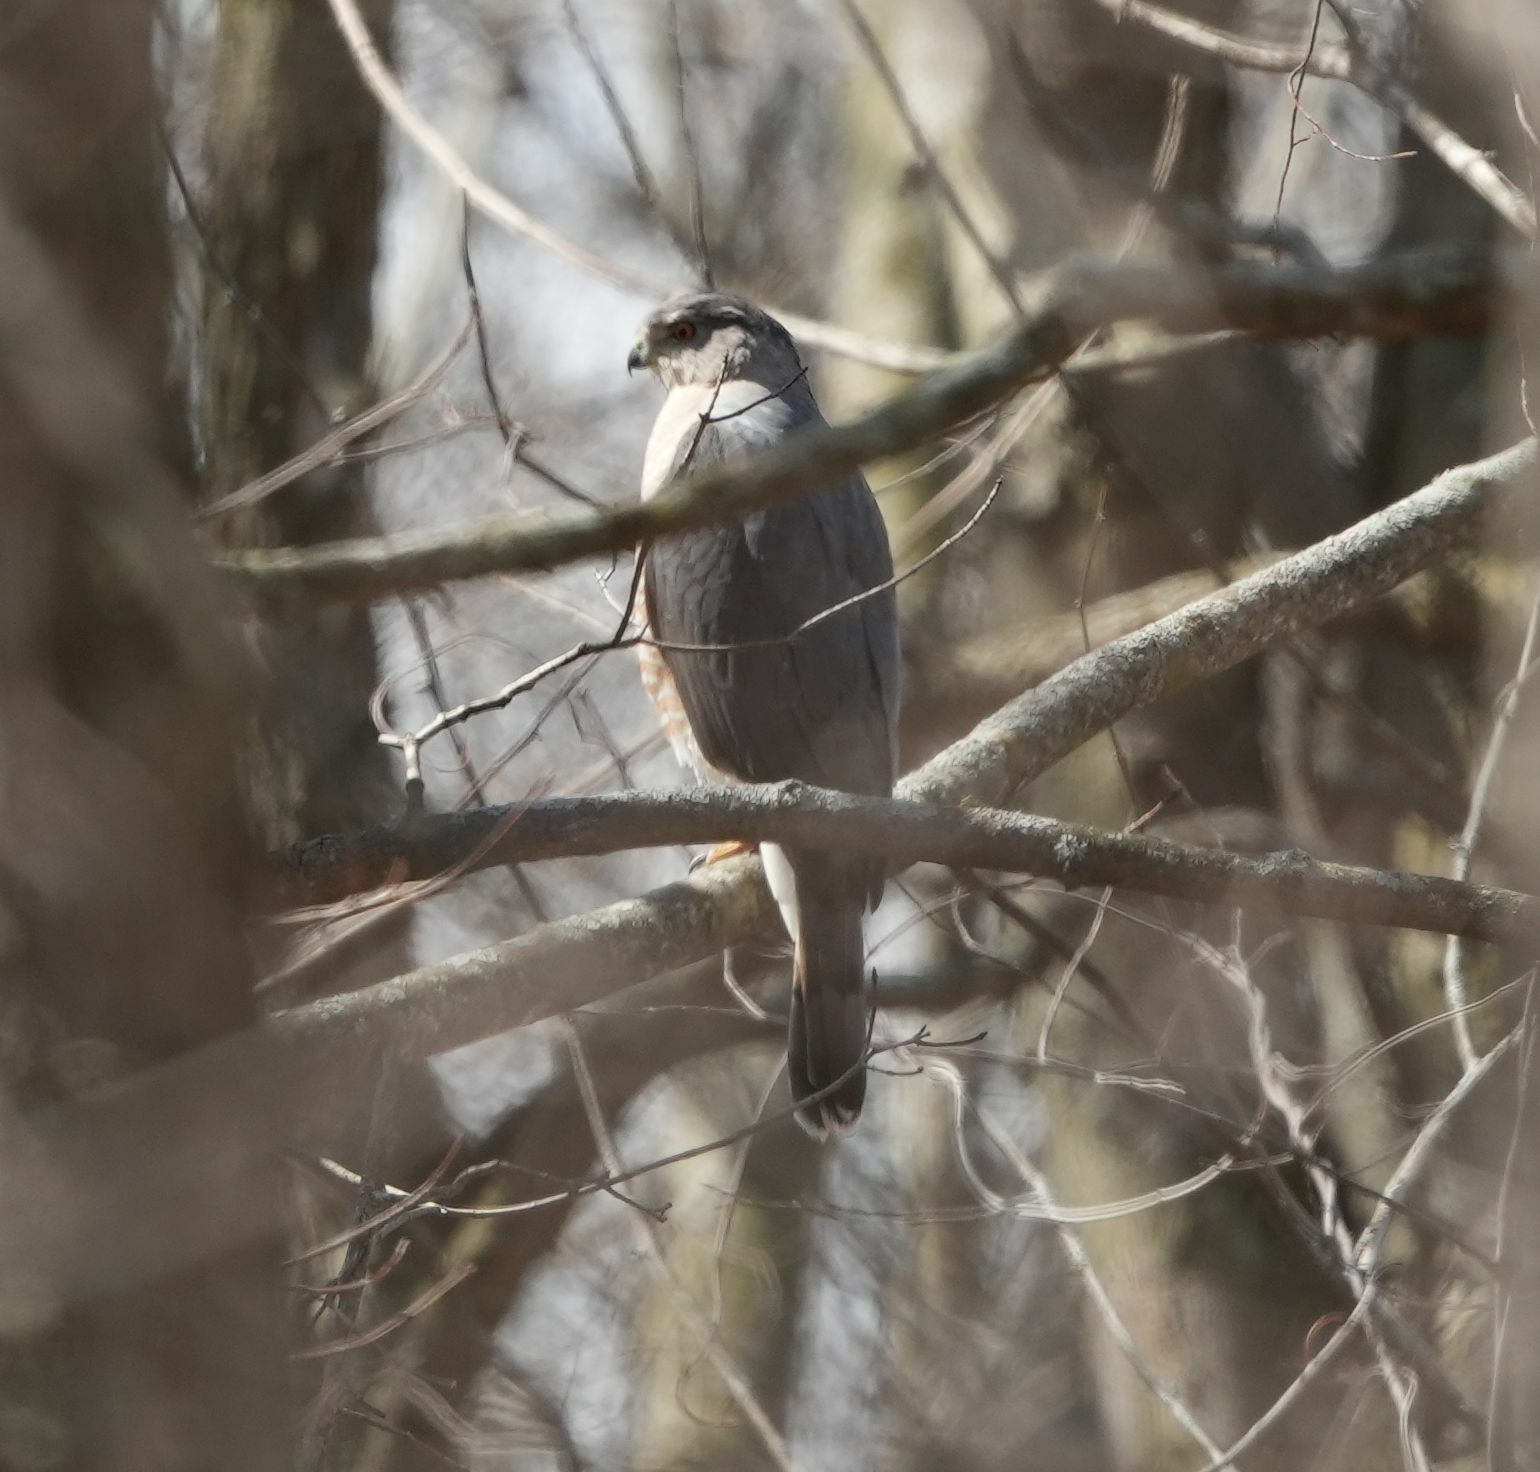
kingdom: Animalia
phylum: Chordata
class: Aves
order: Accipitriformes
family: Accipitridae
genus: Accipiter
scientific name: Accipiter striatus
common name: Sharp-shinned hawk
